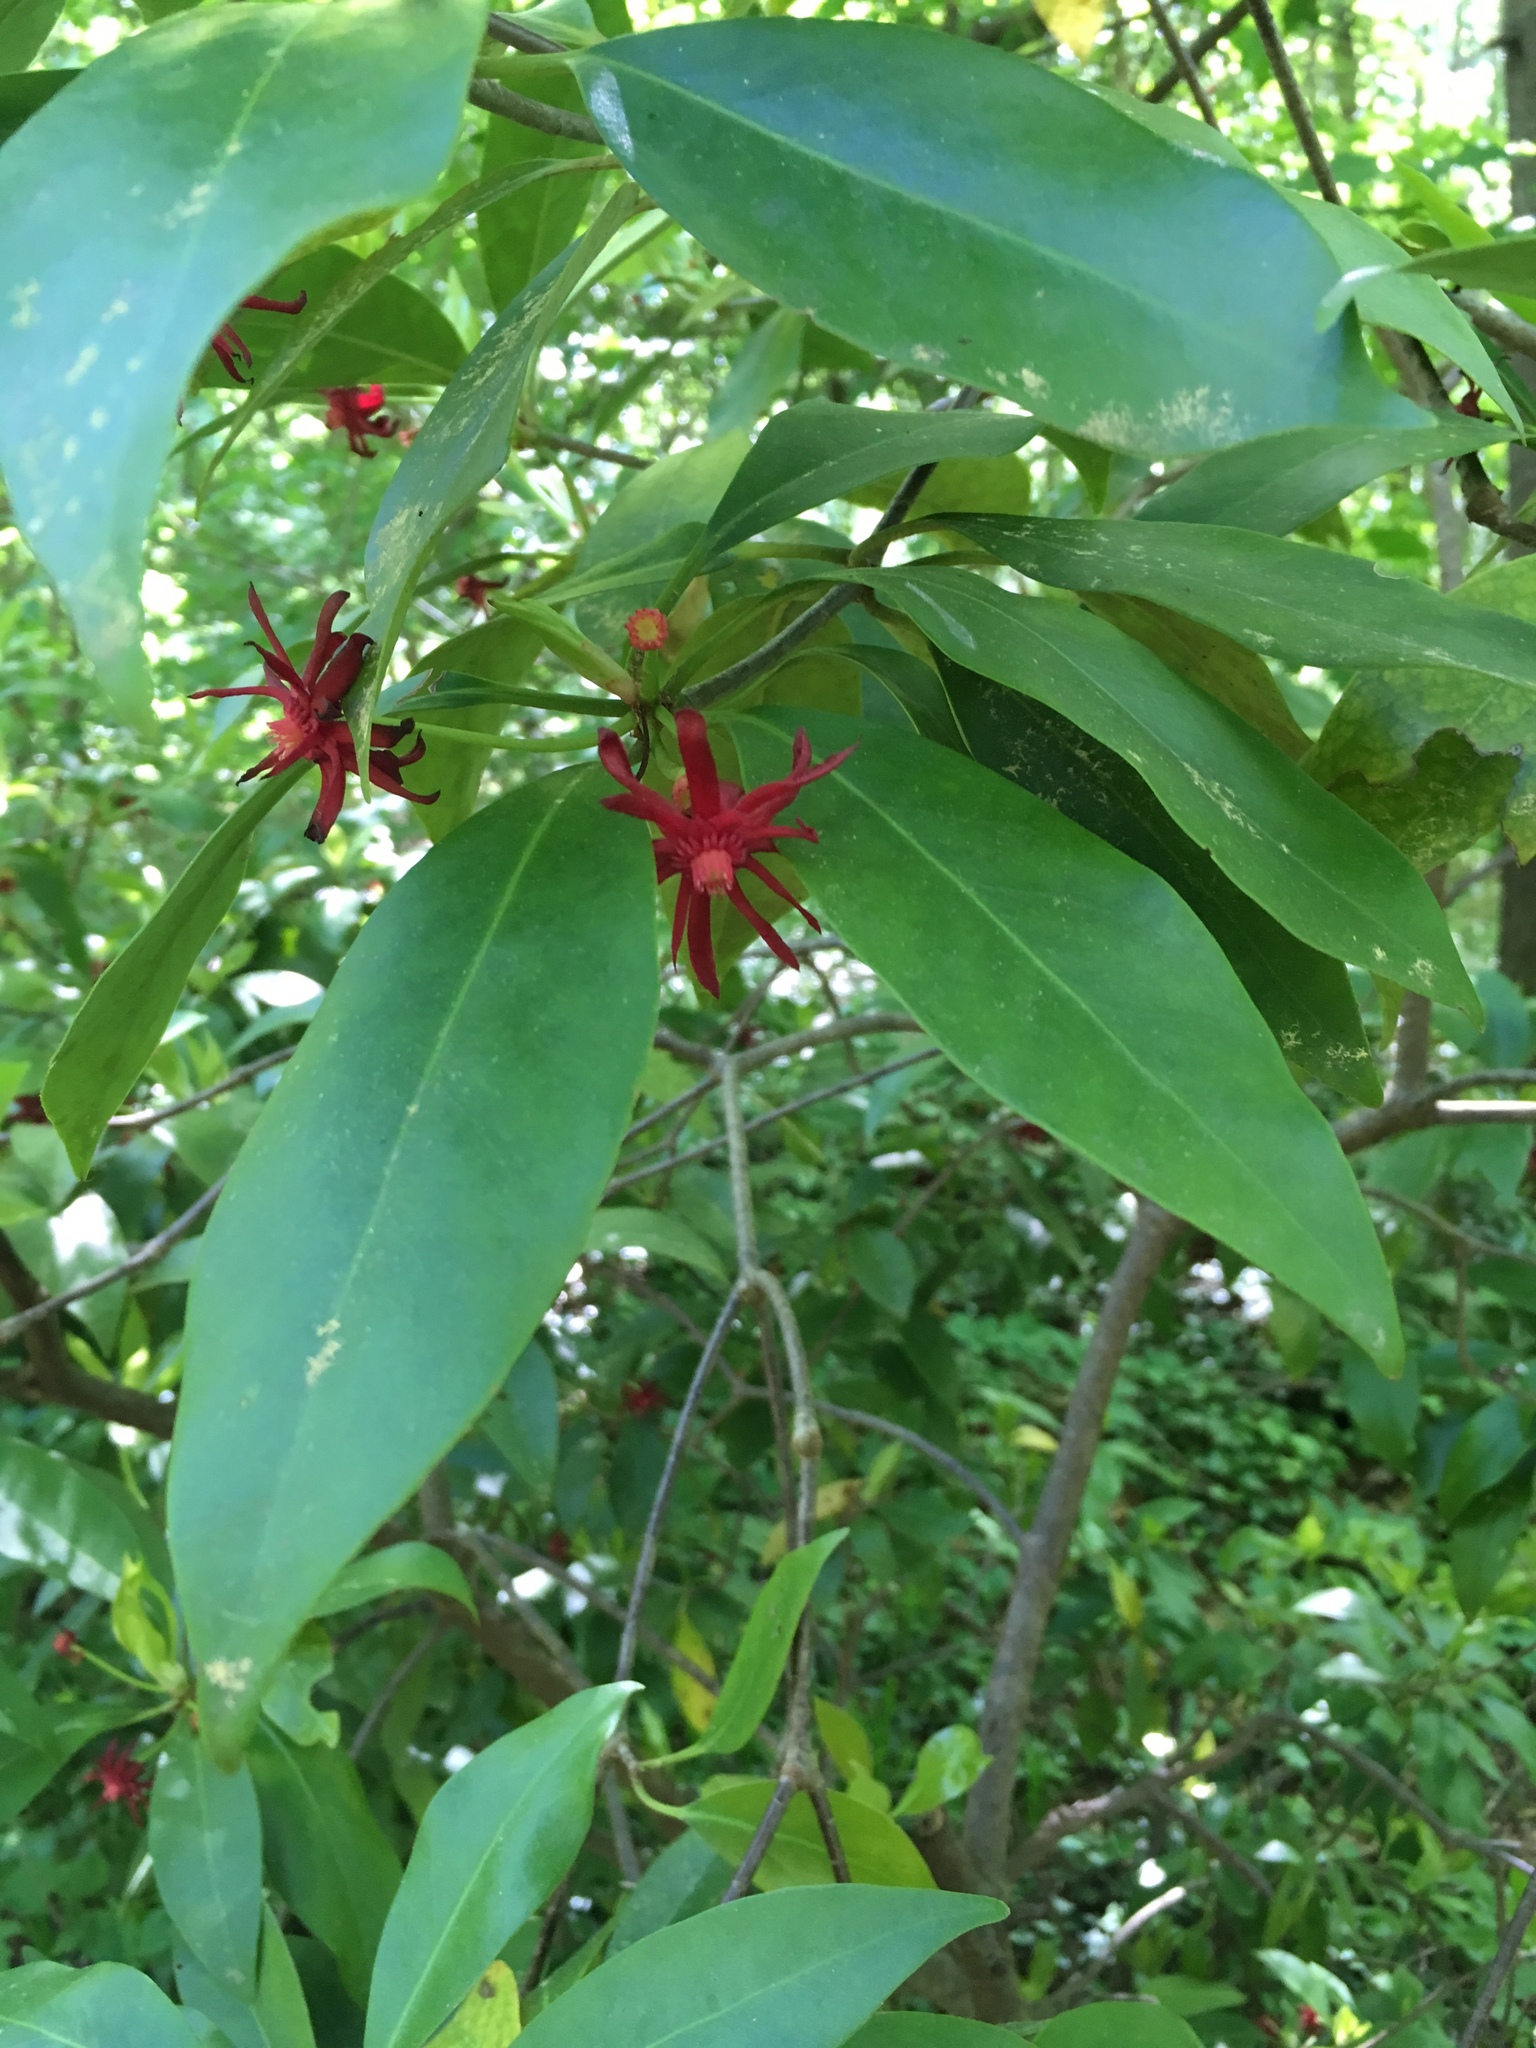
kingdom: Plantae
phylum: Tracheophyta
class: Magnoliopsida
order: Austrobaileyales
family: Schisandraceae
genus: Illicium
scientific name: Illicium floridanum
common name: Florida anisetree
